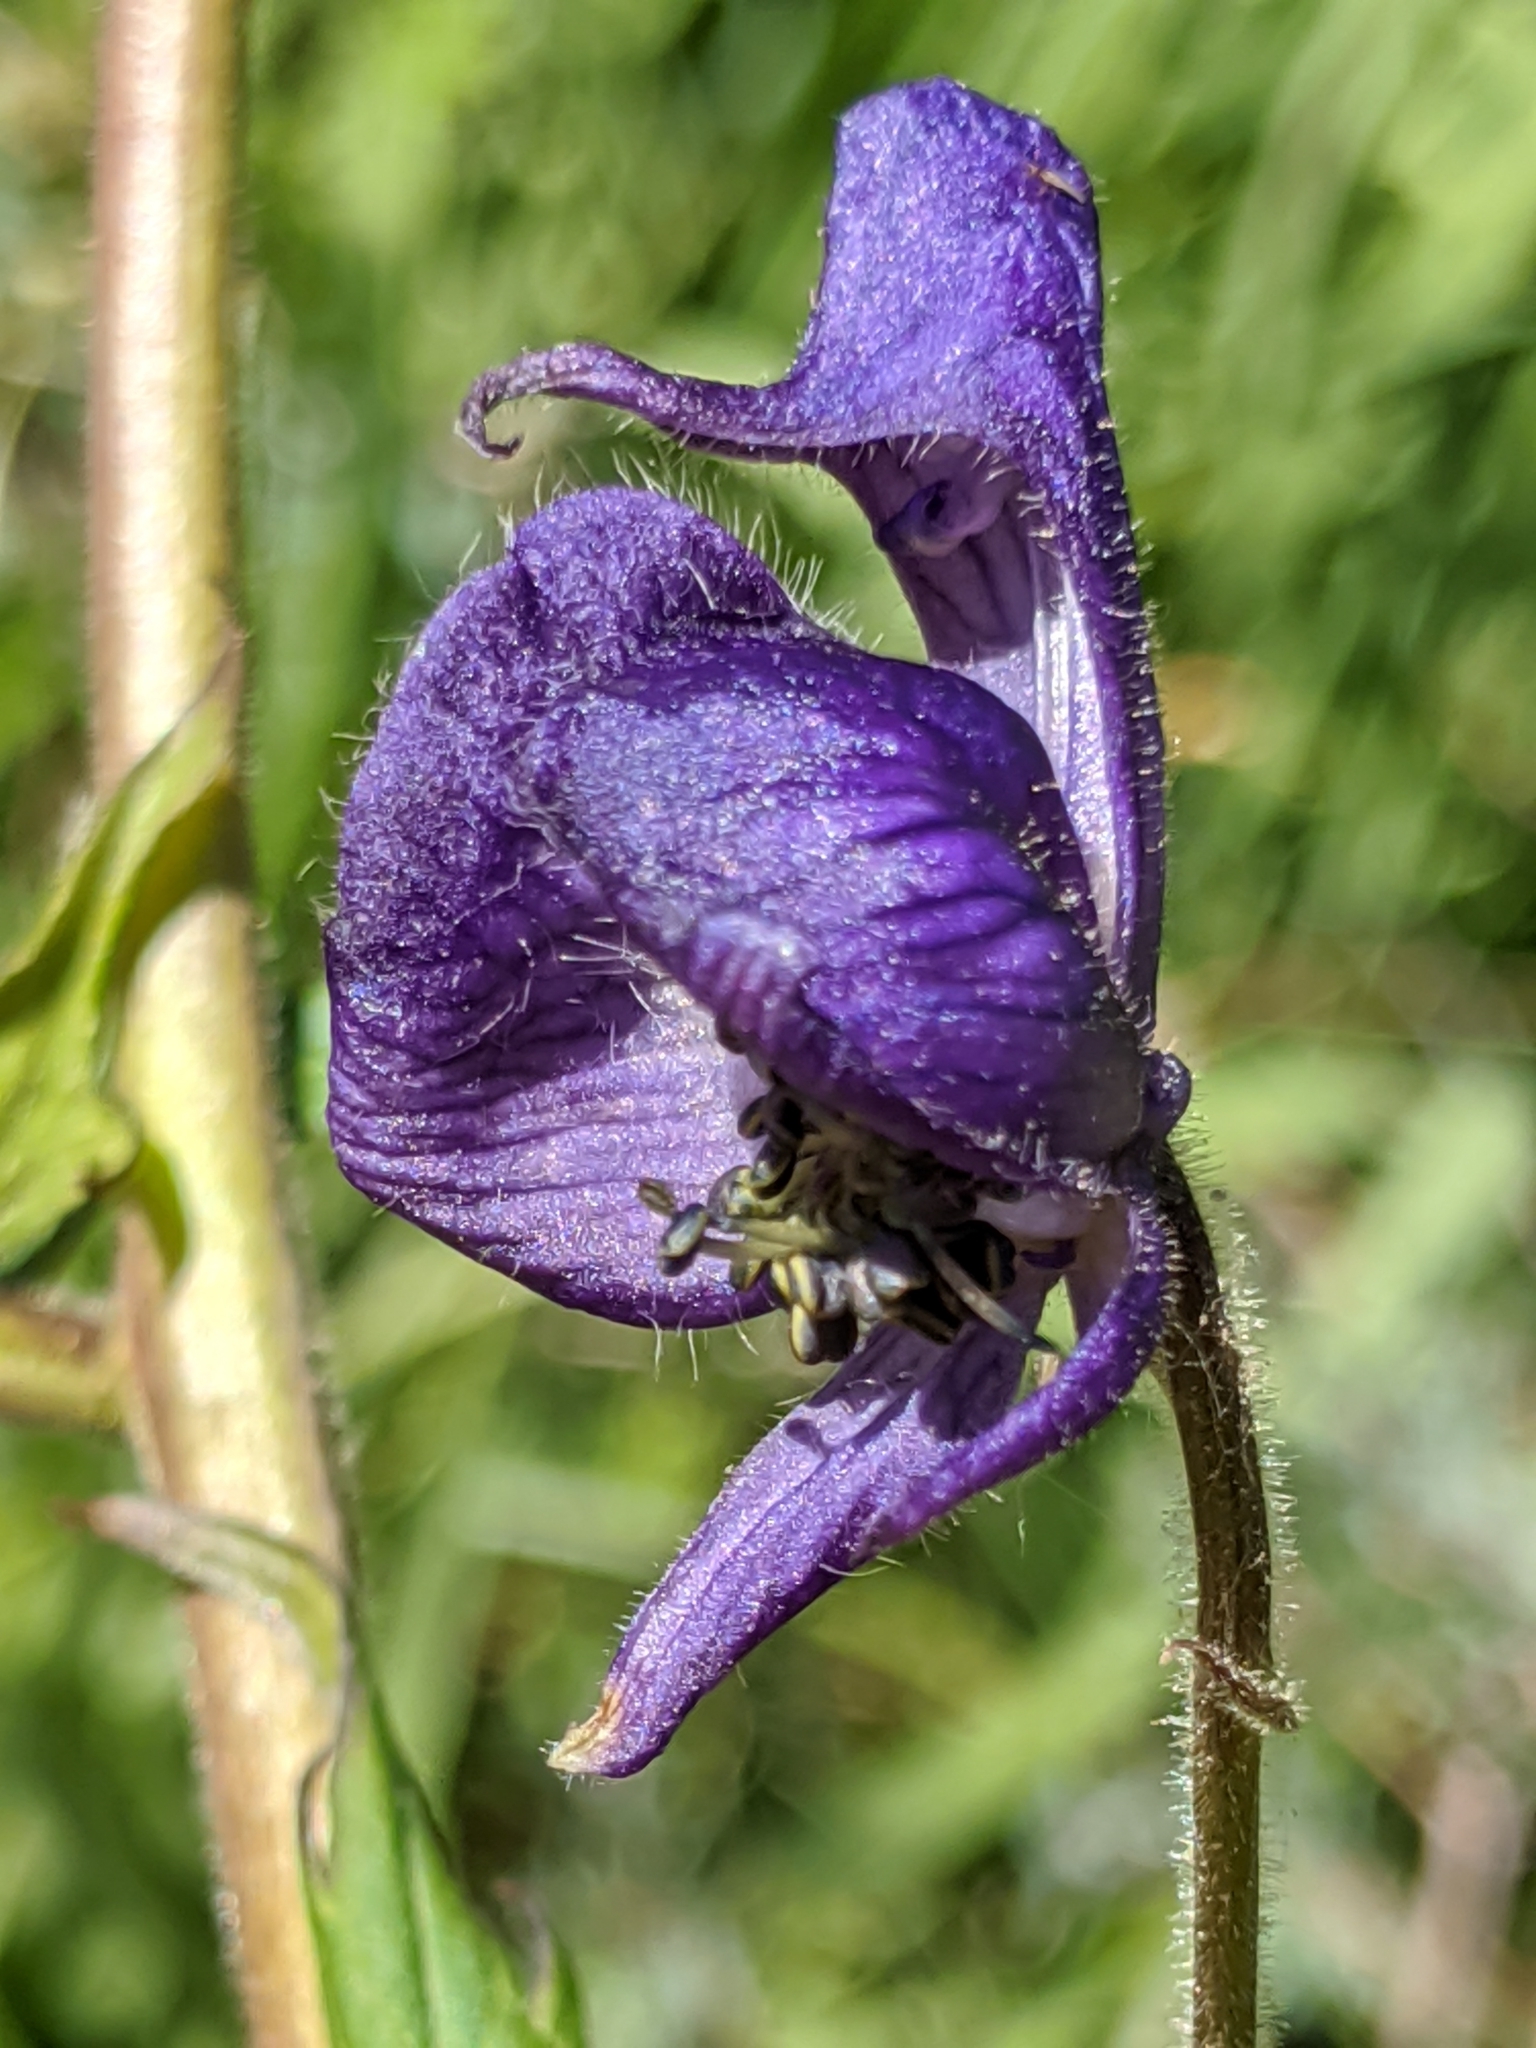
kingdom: Plantae
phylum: Tracheophyta
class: Magnoliopsida
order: Ranunculales
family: Ranunculaceae
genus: Aconitum
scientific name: Aconitum columbianum
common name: Columbia aconite
